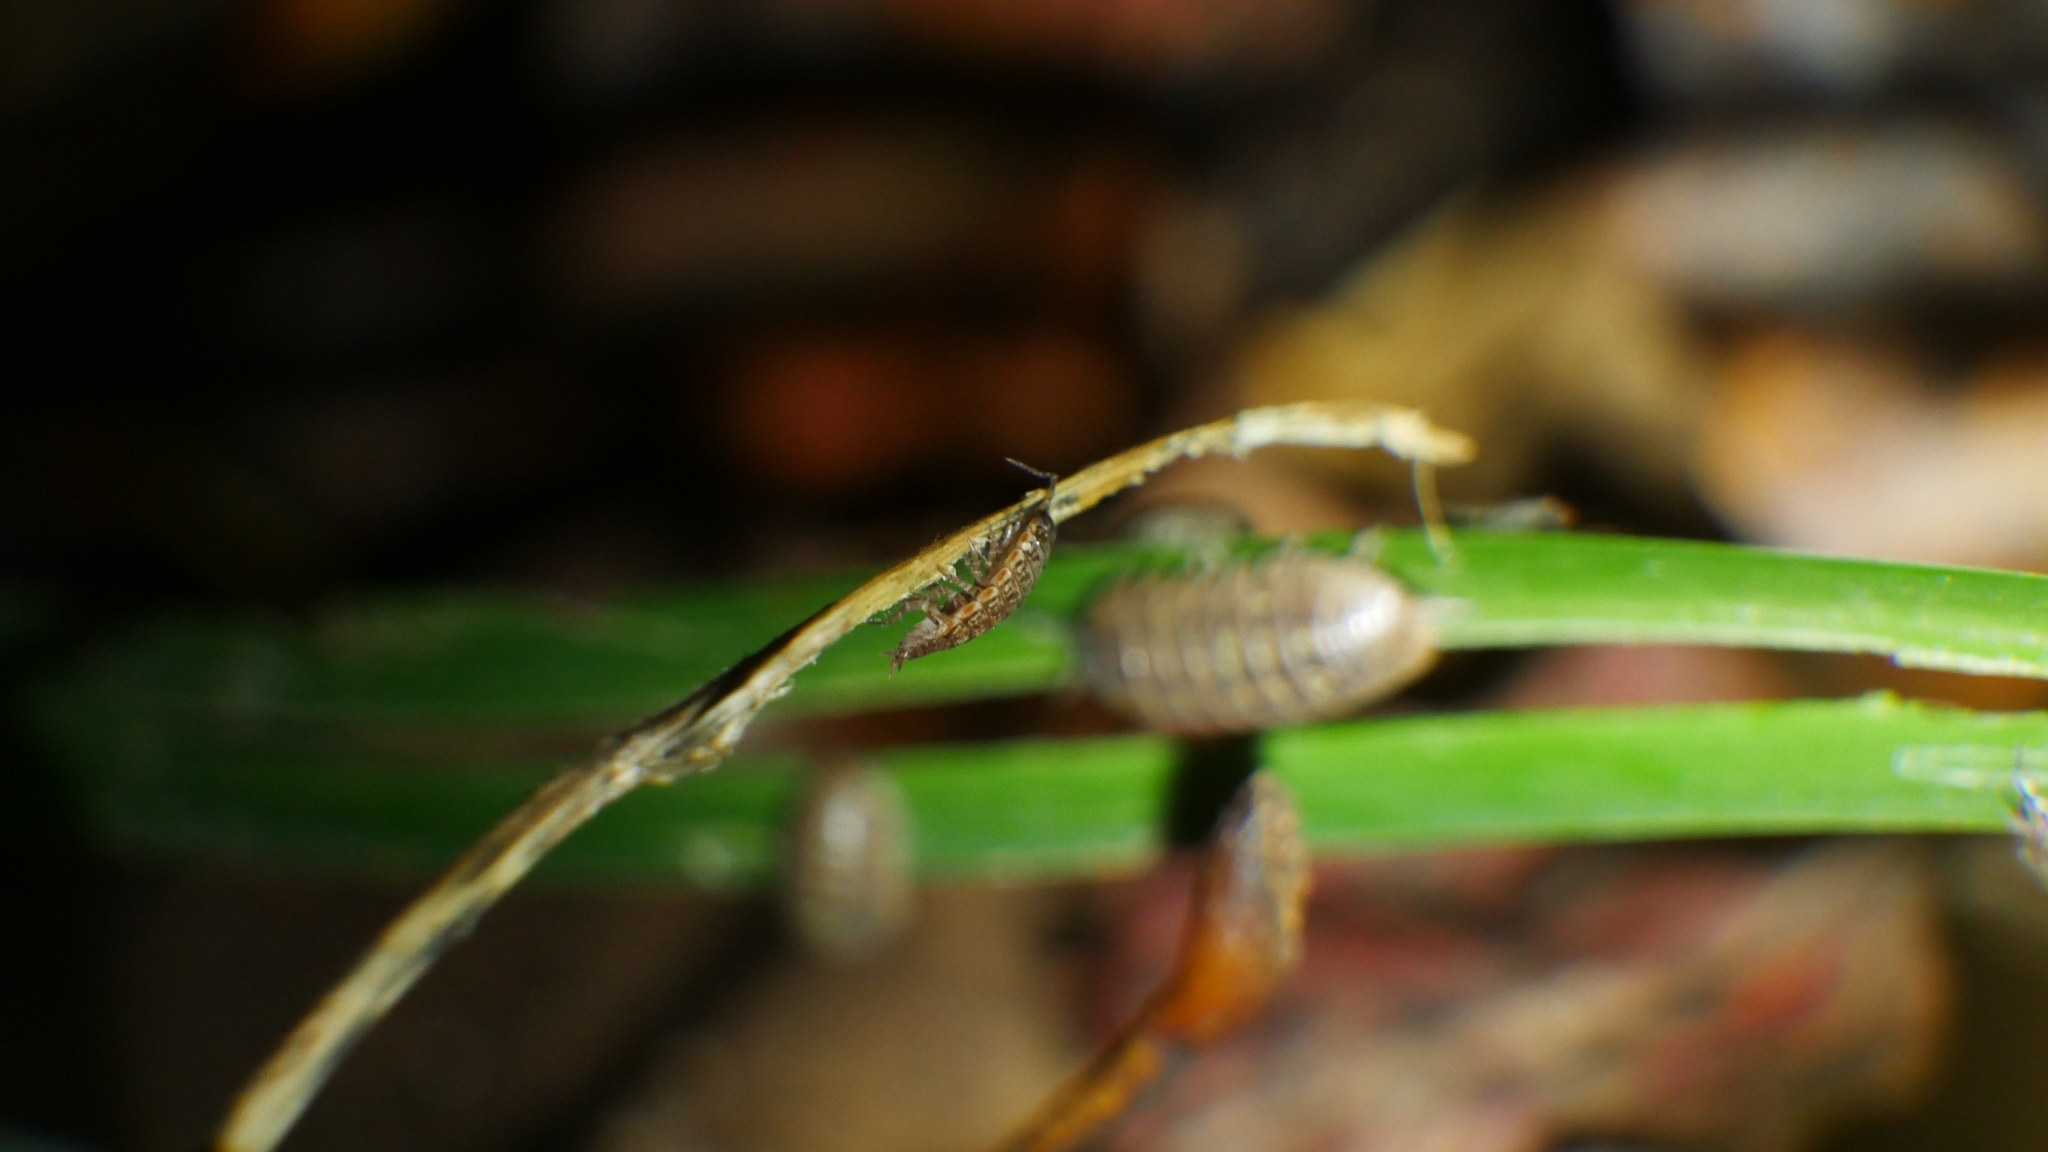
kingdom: Animalia
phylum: Arthropoda
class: Malacostraca
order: Isopoda
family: Philosciidae
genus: Philoscia
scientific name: Philoscia muscorum
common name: Common striped woodlouse
